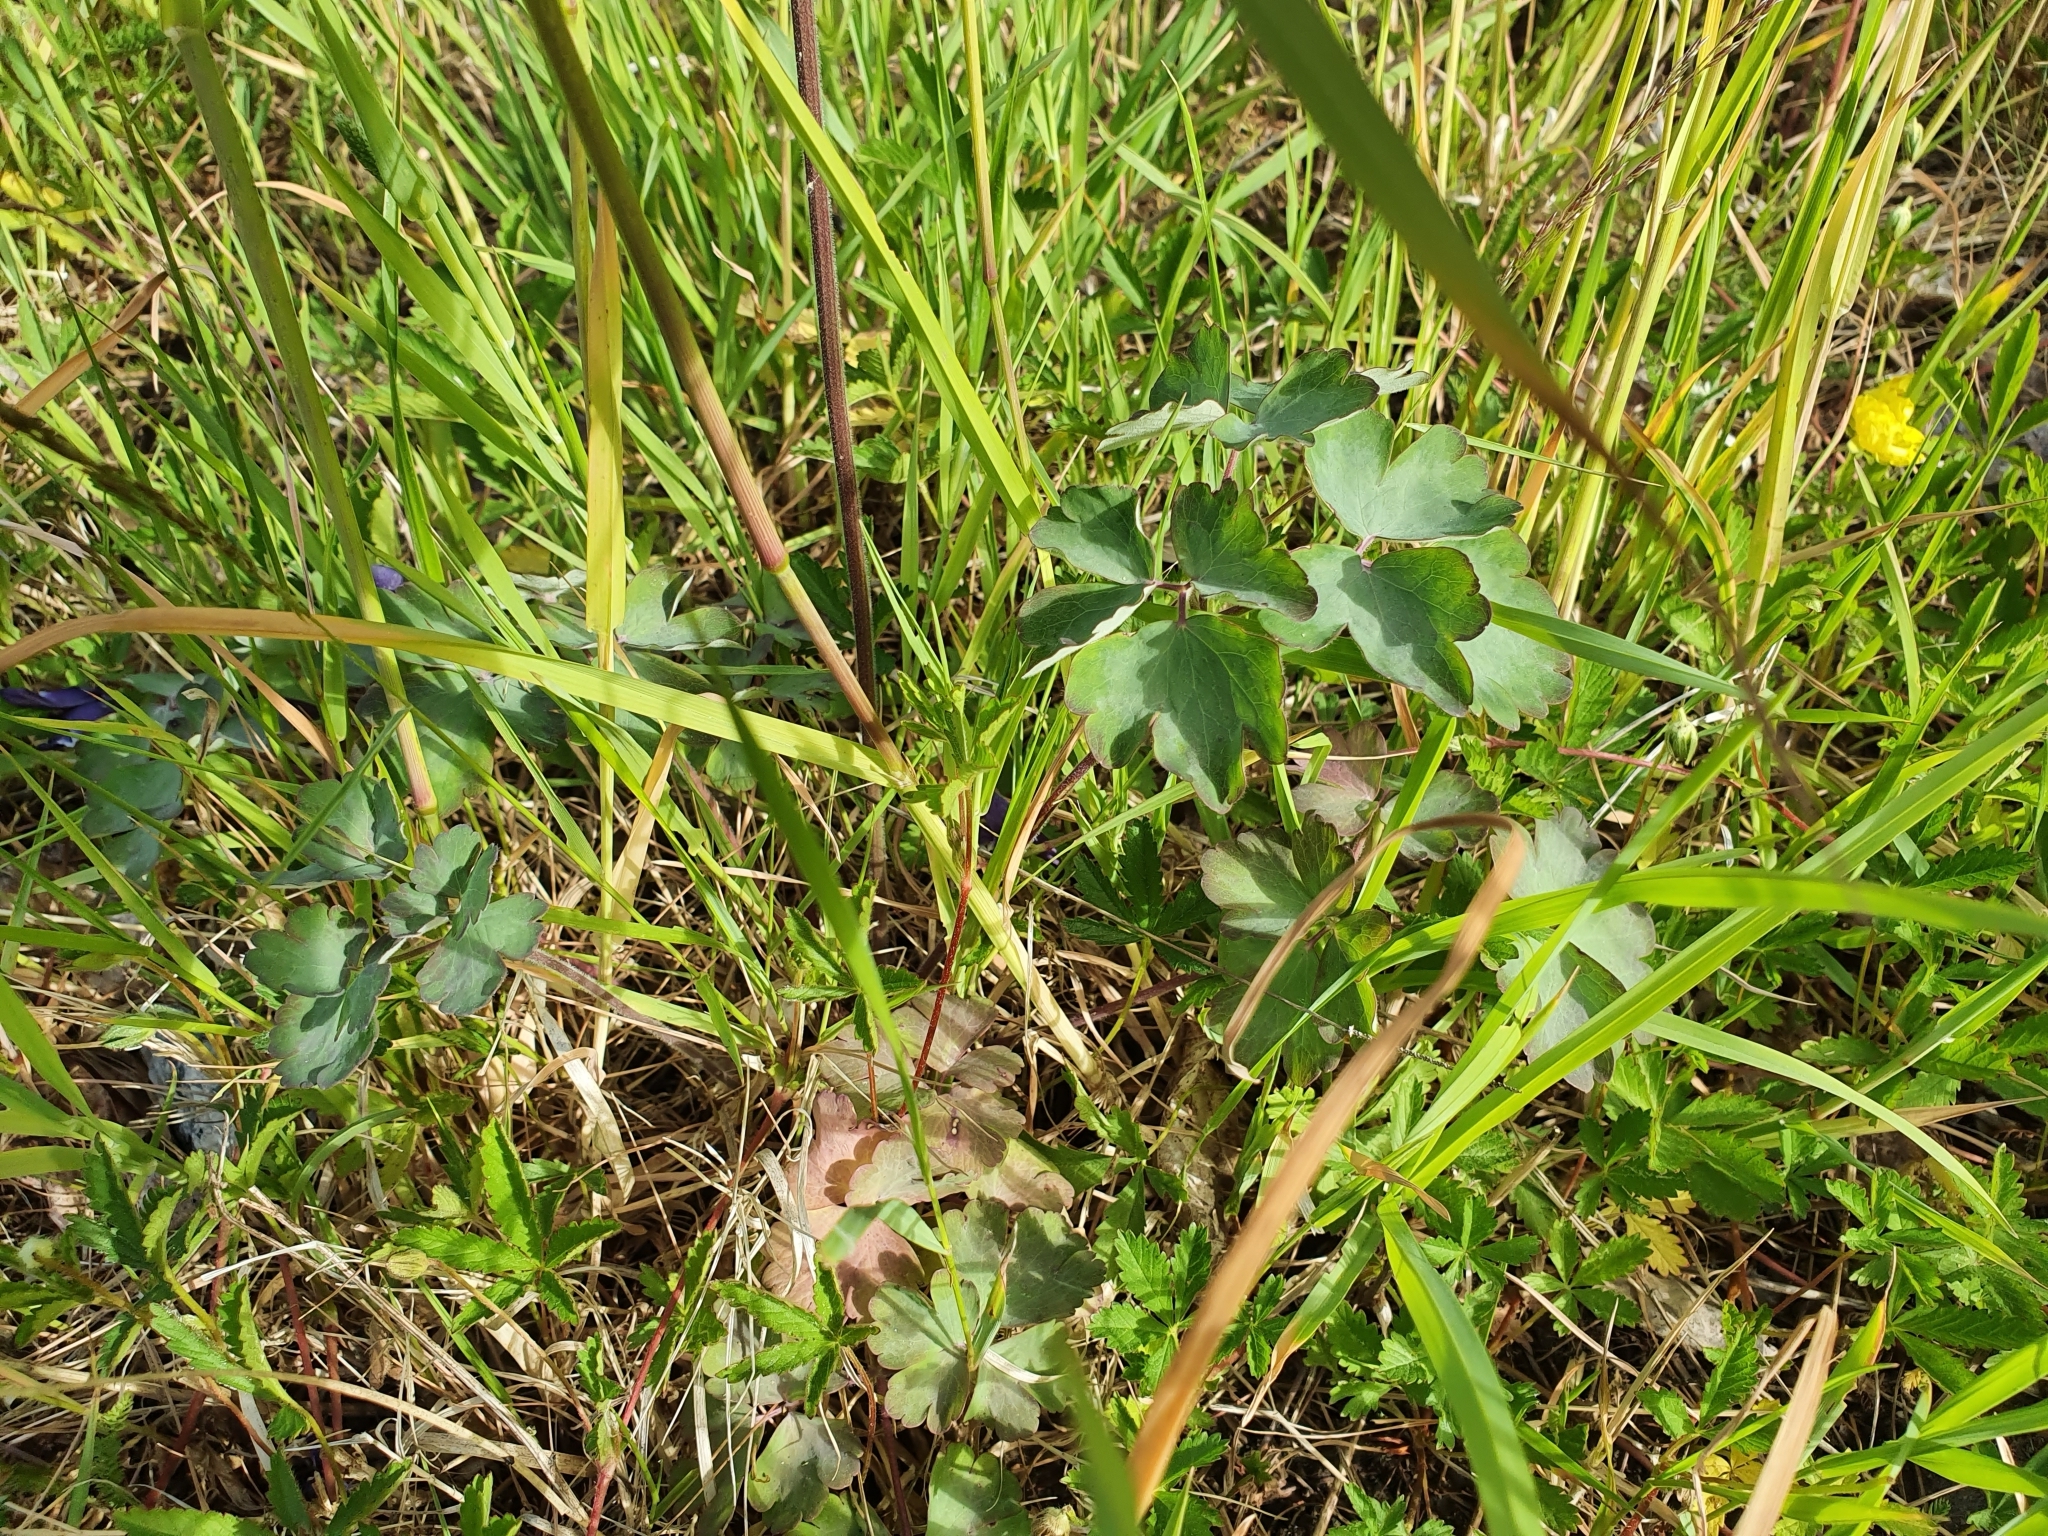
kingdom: Plantae
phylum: Tracheophyta
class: Magnoliopsida
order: Ranunculales
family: Ranunculaceae
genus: Aquilegia
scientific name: Aquilegia vulgaris
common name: Columbine
